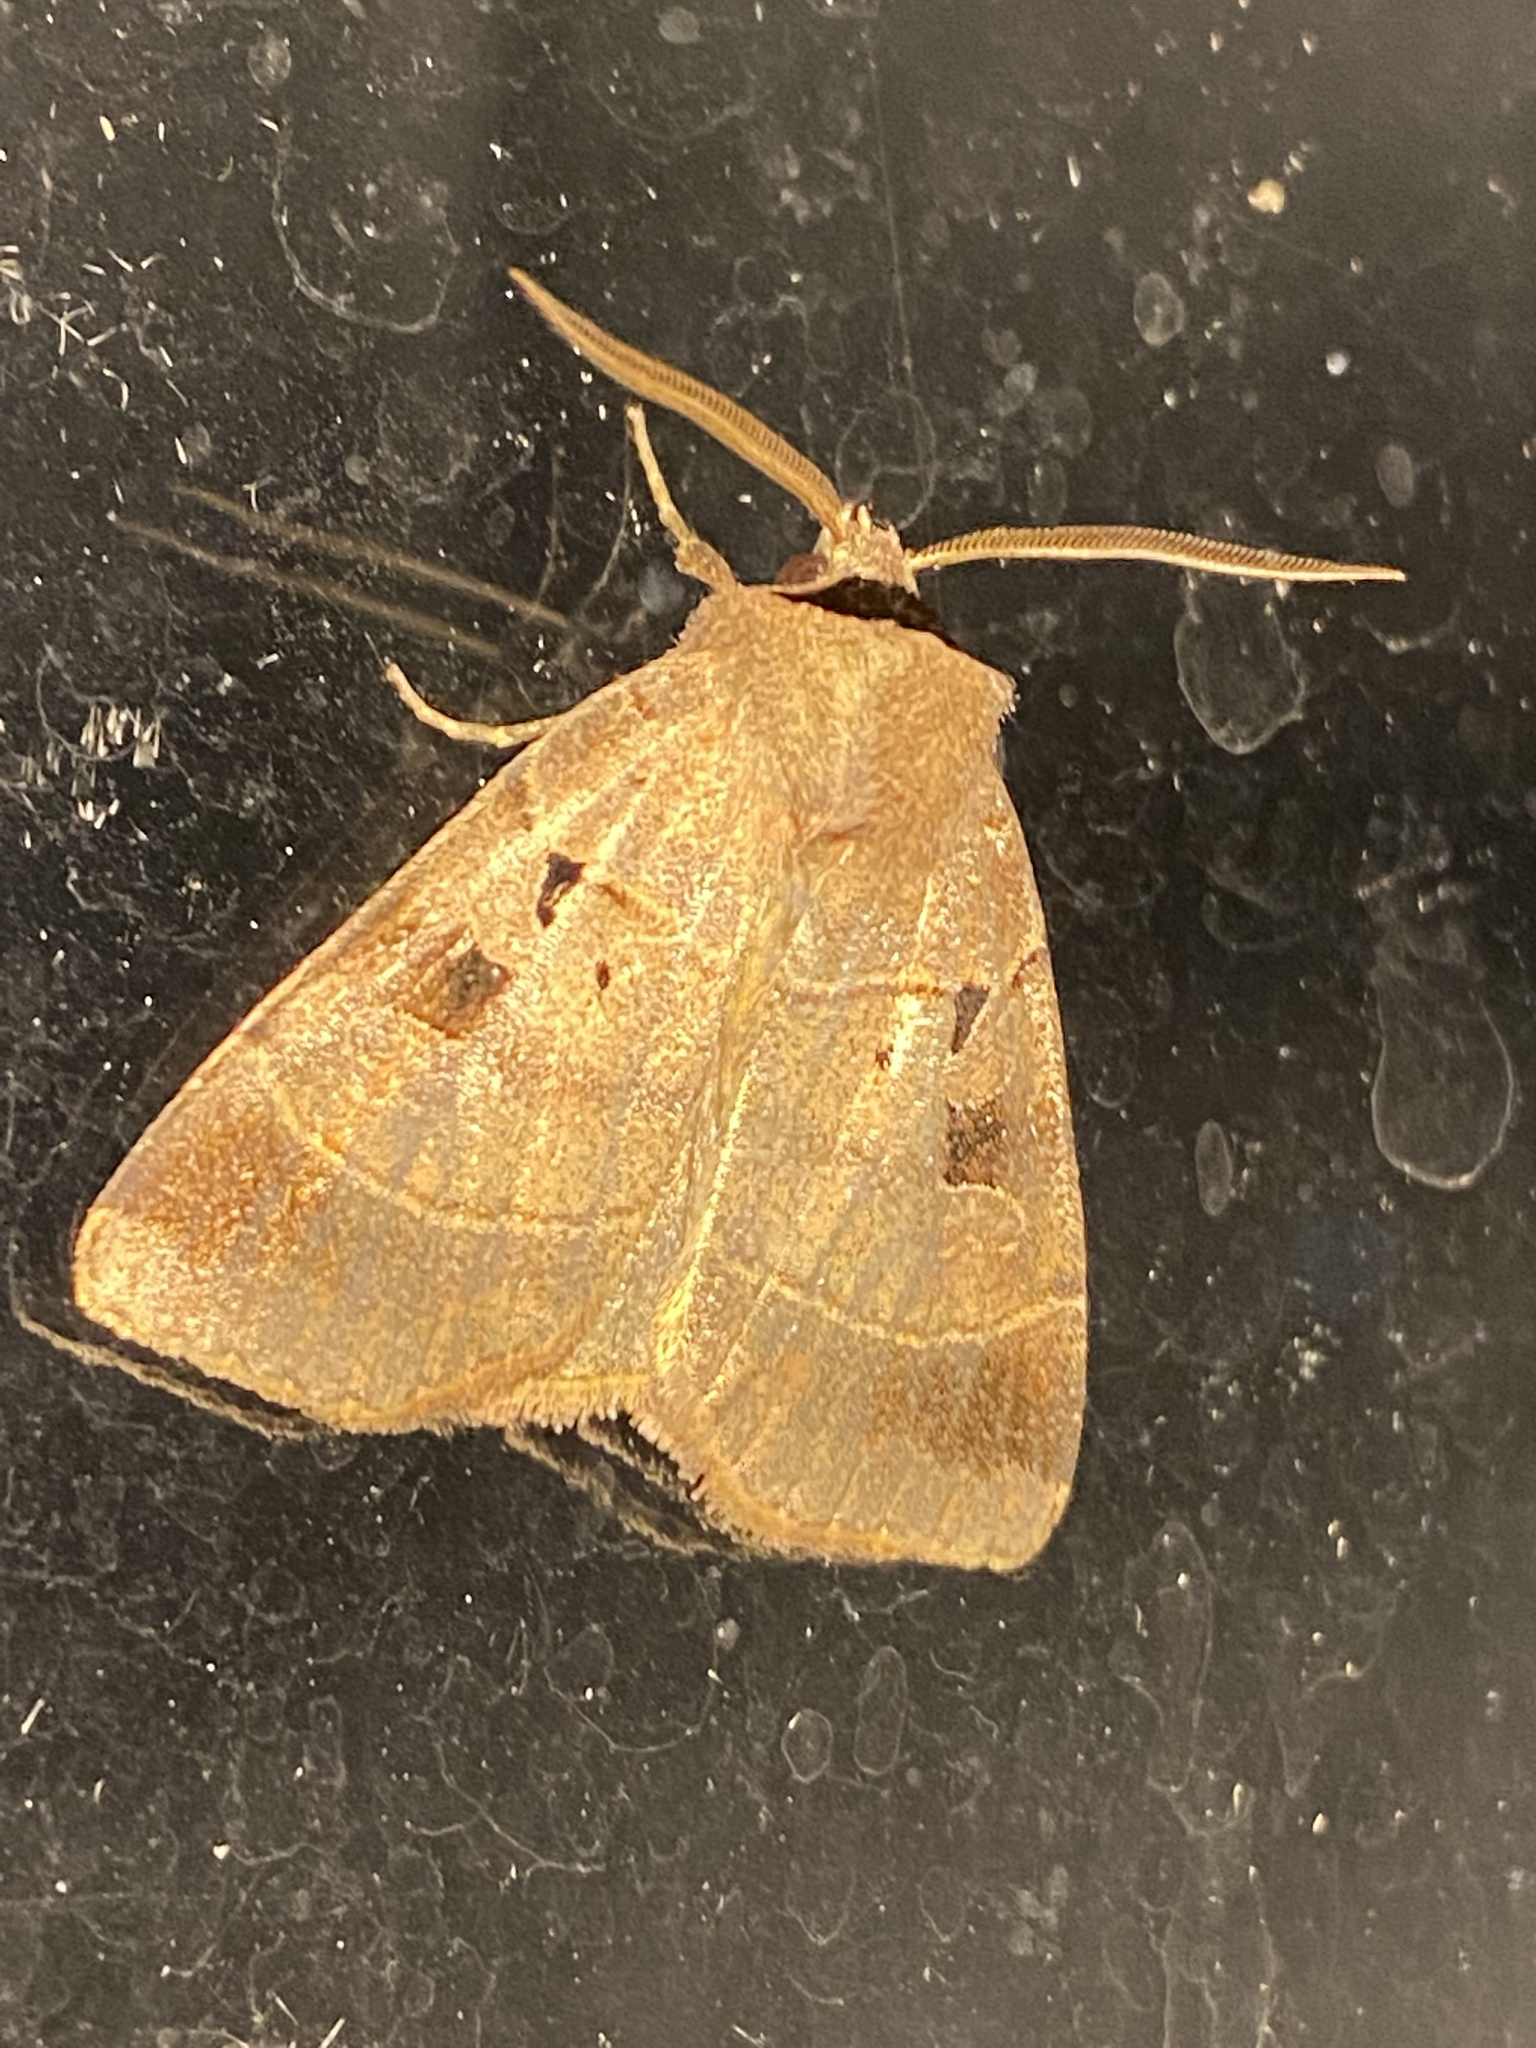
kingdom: Animalia
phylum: Arthropoda
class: Insecta
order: Lepidoptera
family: Noctuidae
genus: Agnorisma
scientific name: Agnorisma badinodis
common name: Pale-banded dart
